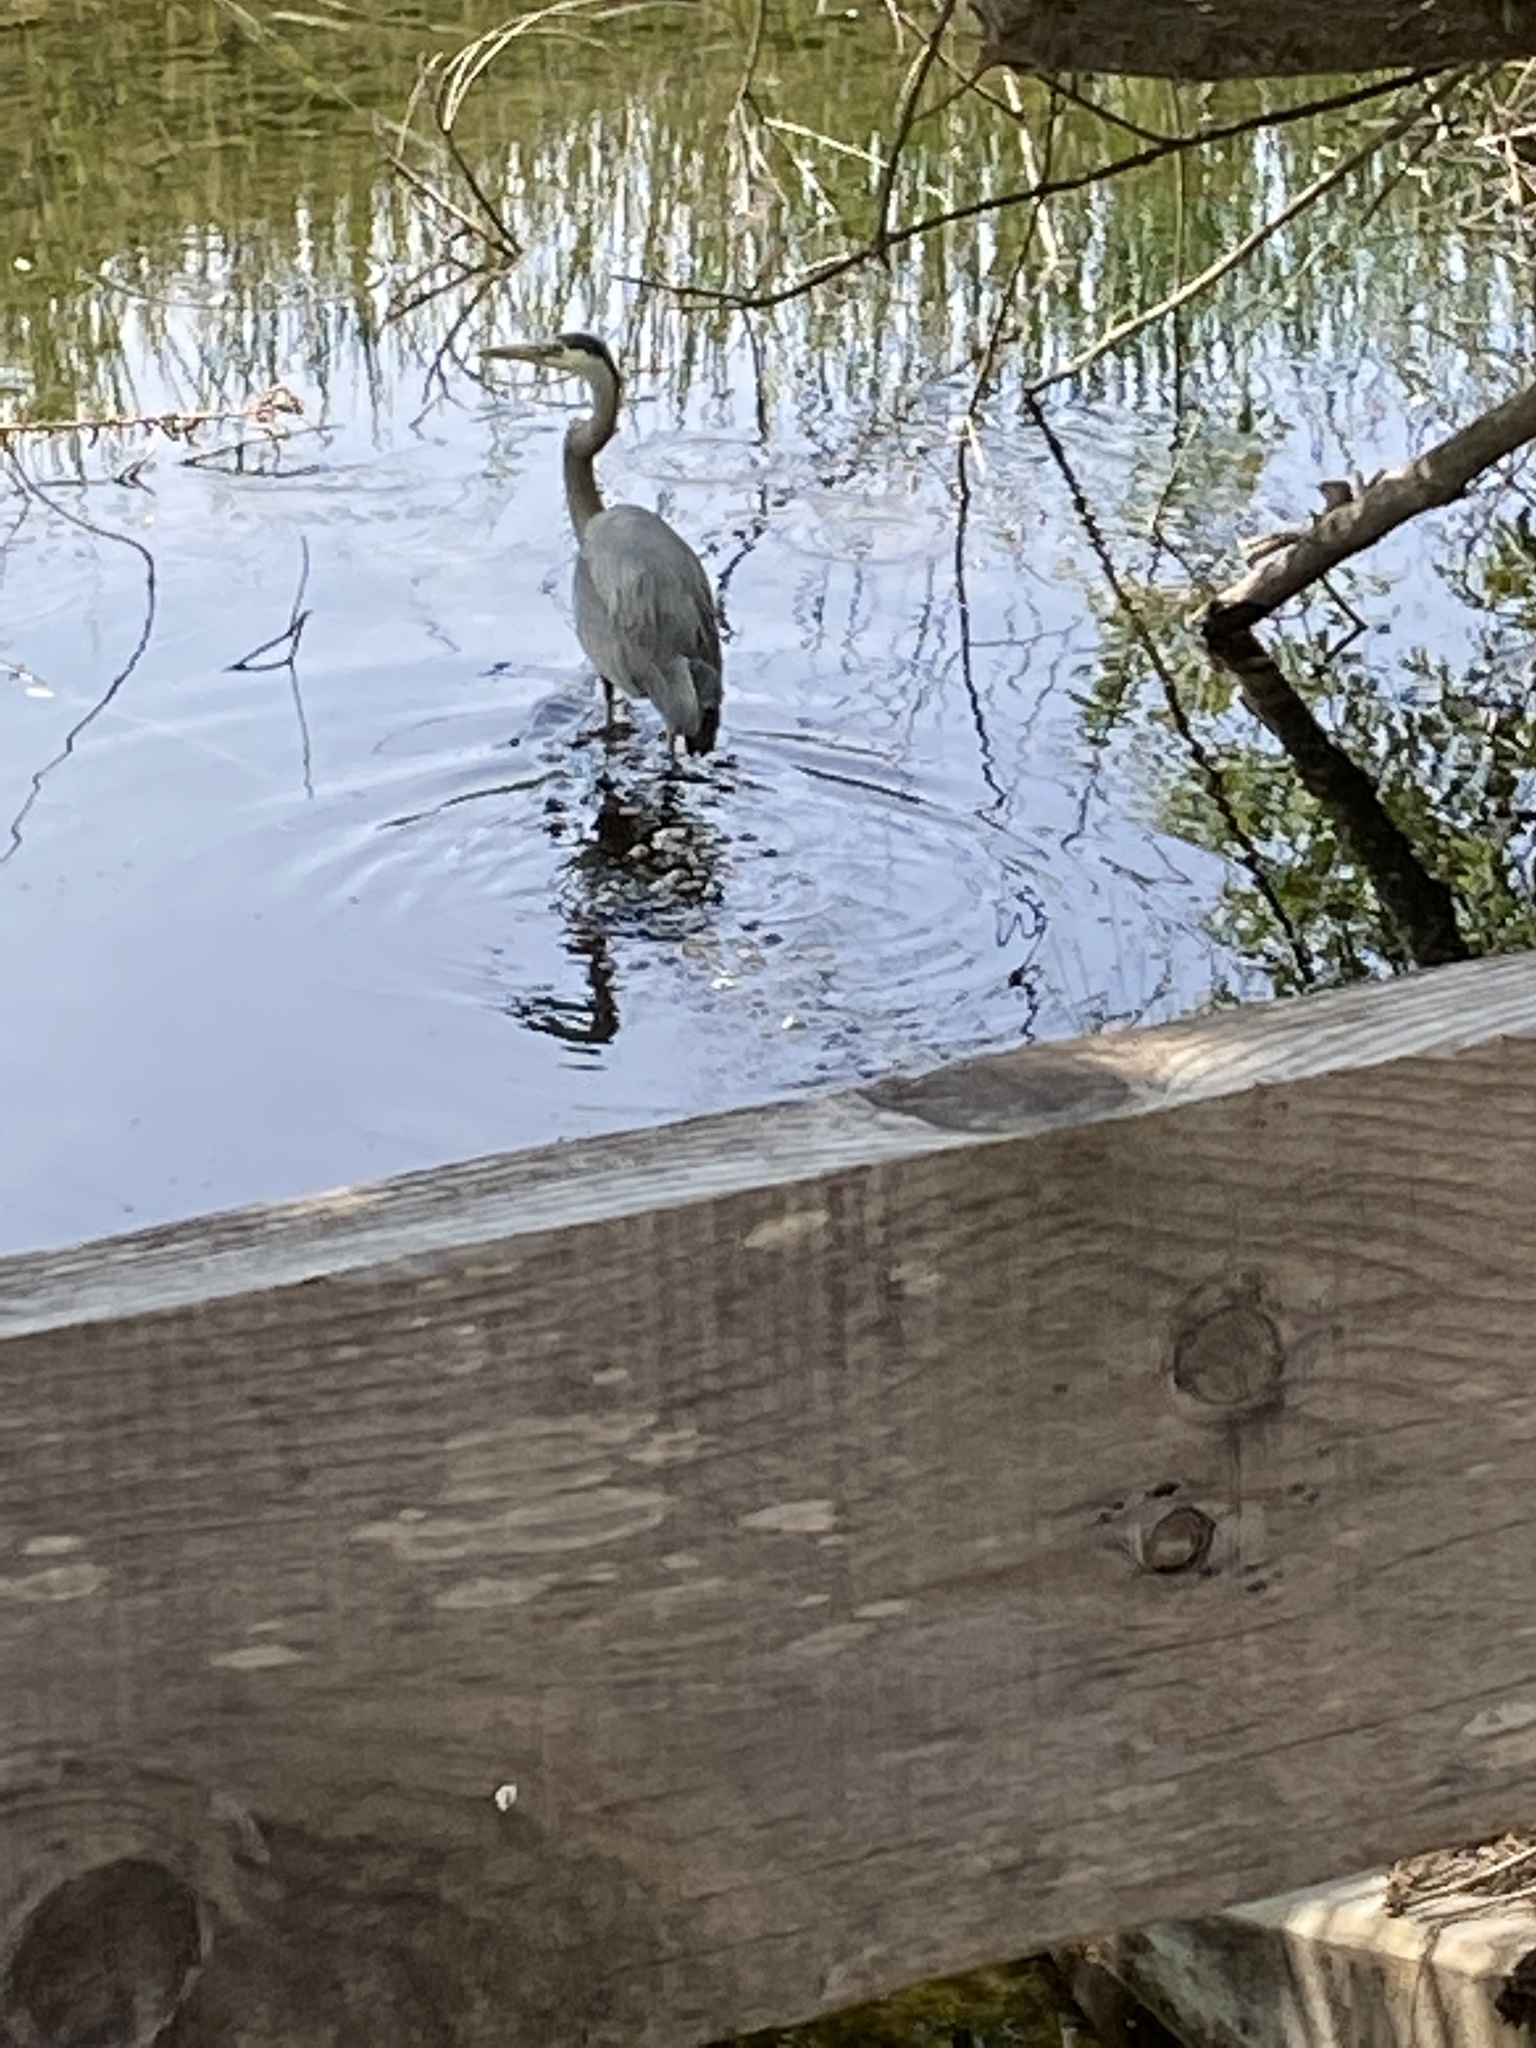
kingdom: Animalia
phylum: Chordata
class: Aves
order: Pelecaniformes
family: Ardeidae
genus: Ardea
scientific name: Ardea herodias
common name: Great blue heron
